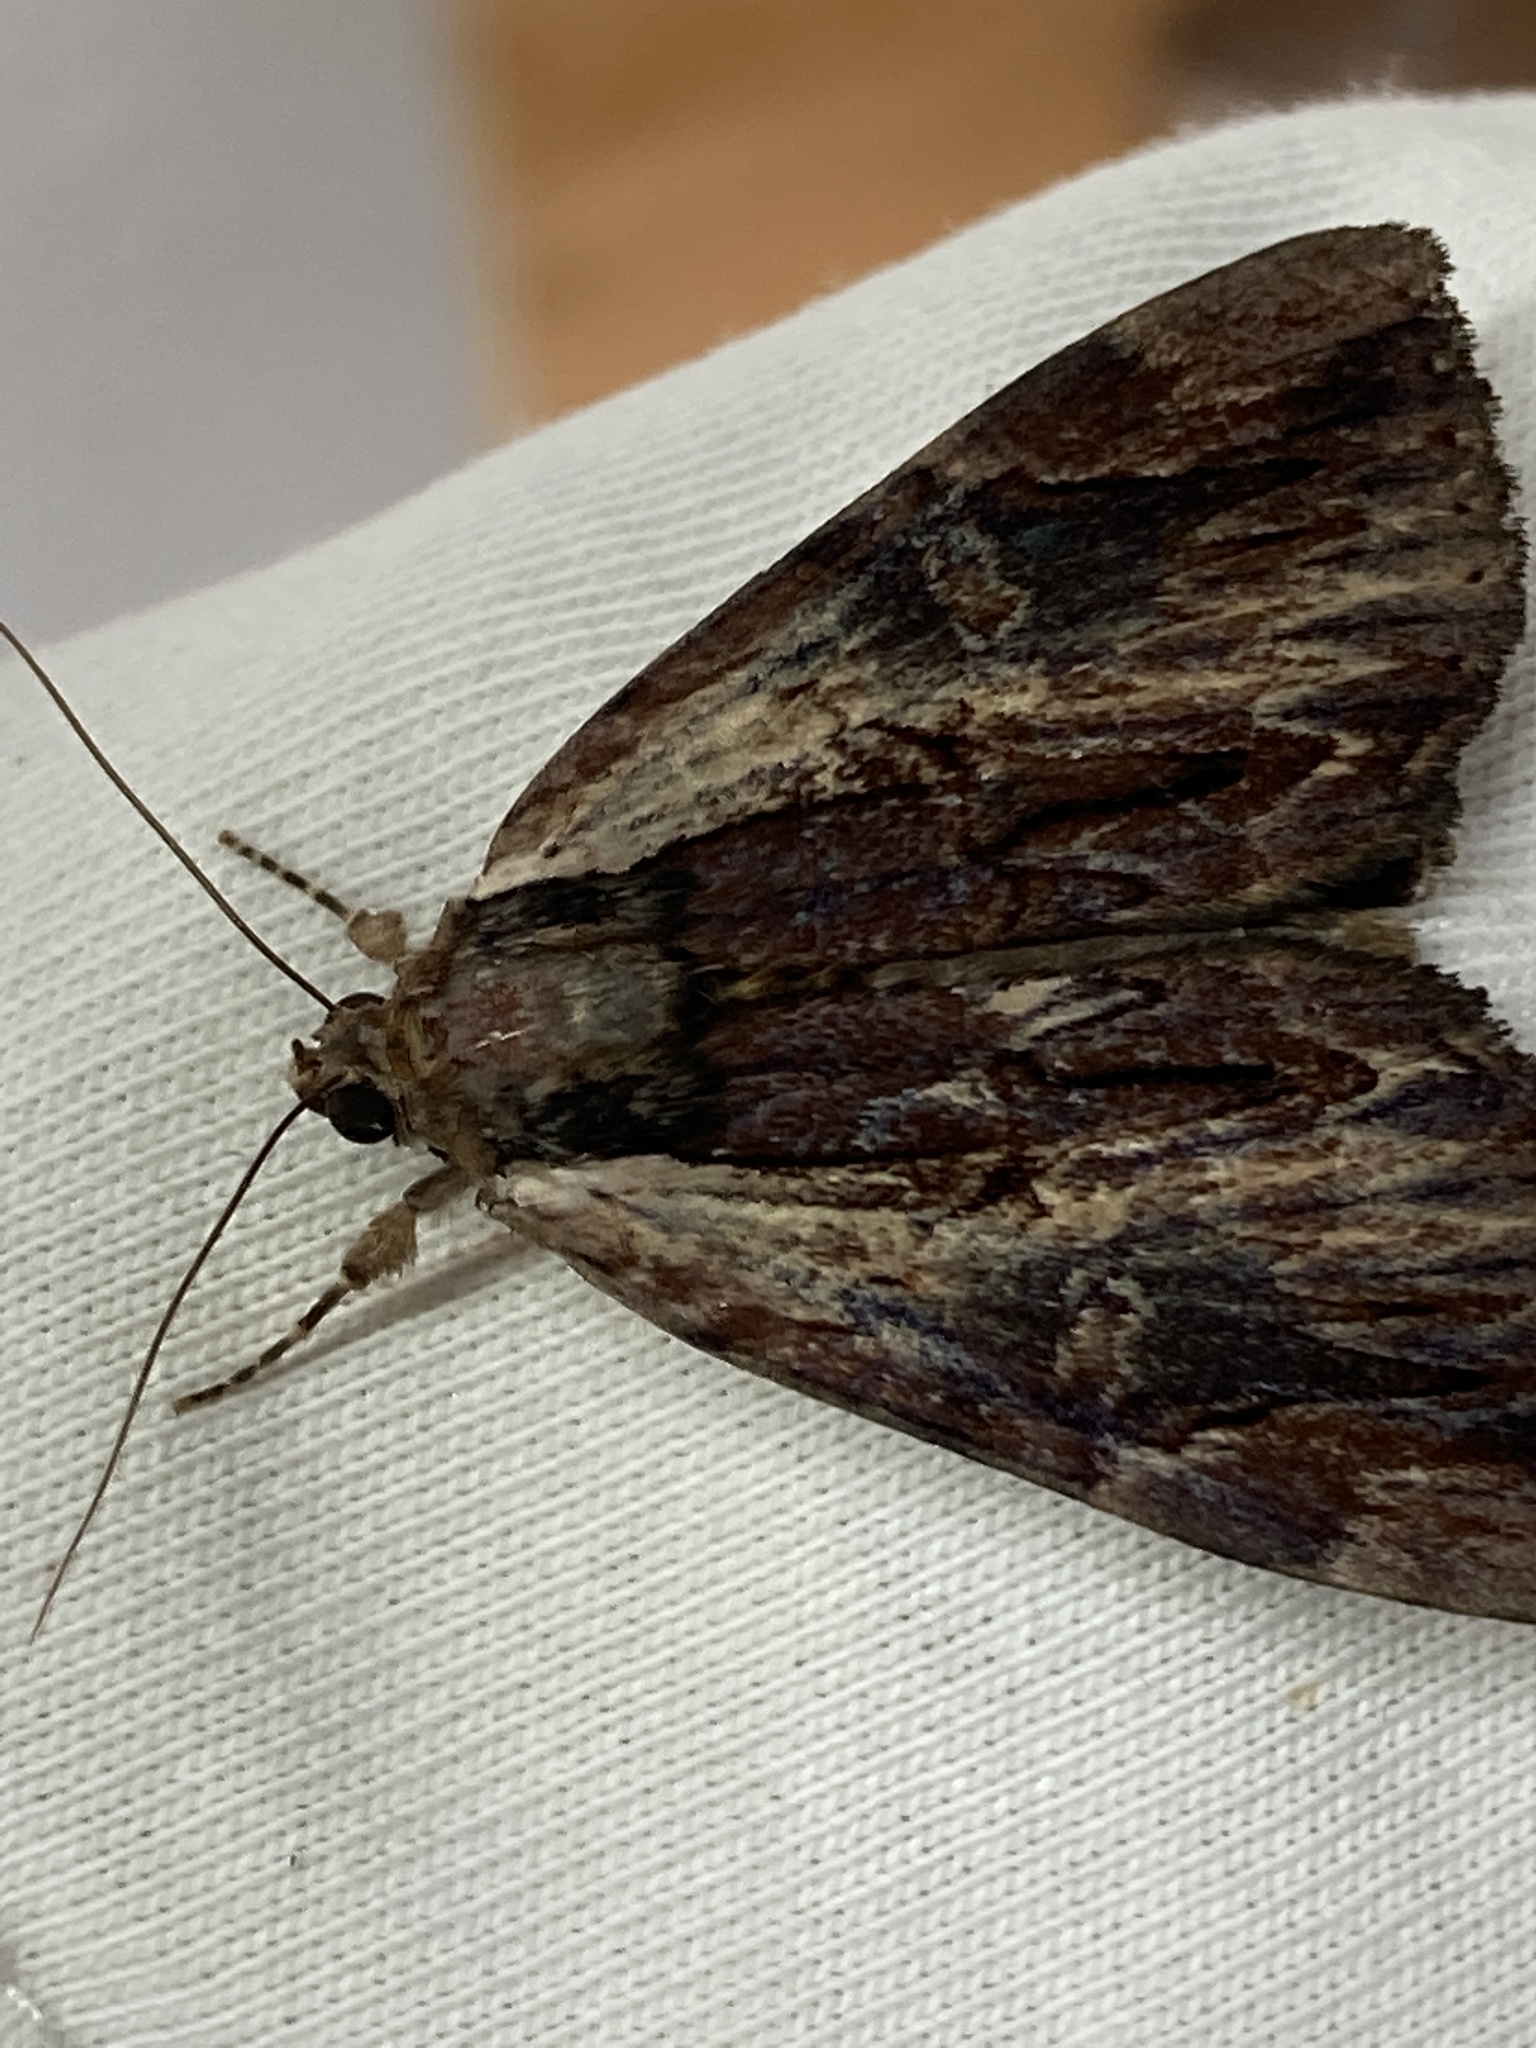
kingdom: Animalia
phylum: Arthropoda
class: Insecta
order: Lepidoptera
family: Erebidae
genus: Catocala
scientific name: Catocala ultronia
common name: Ultronia underwing
